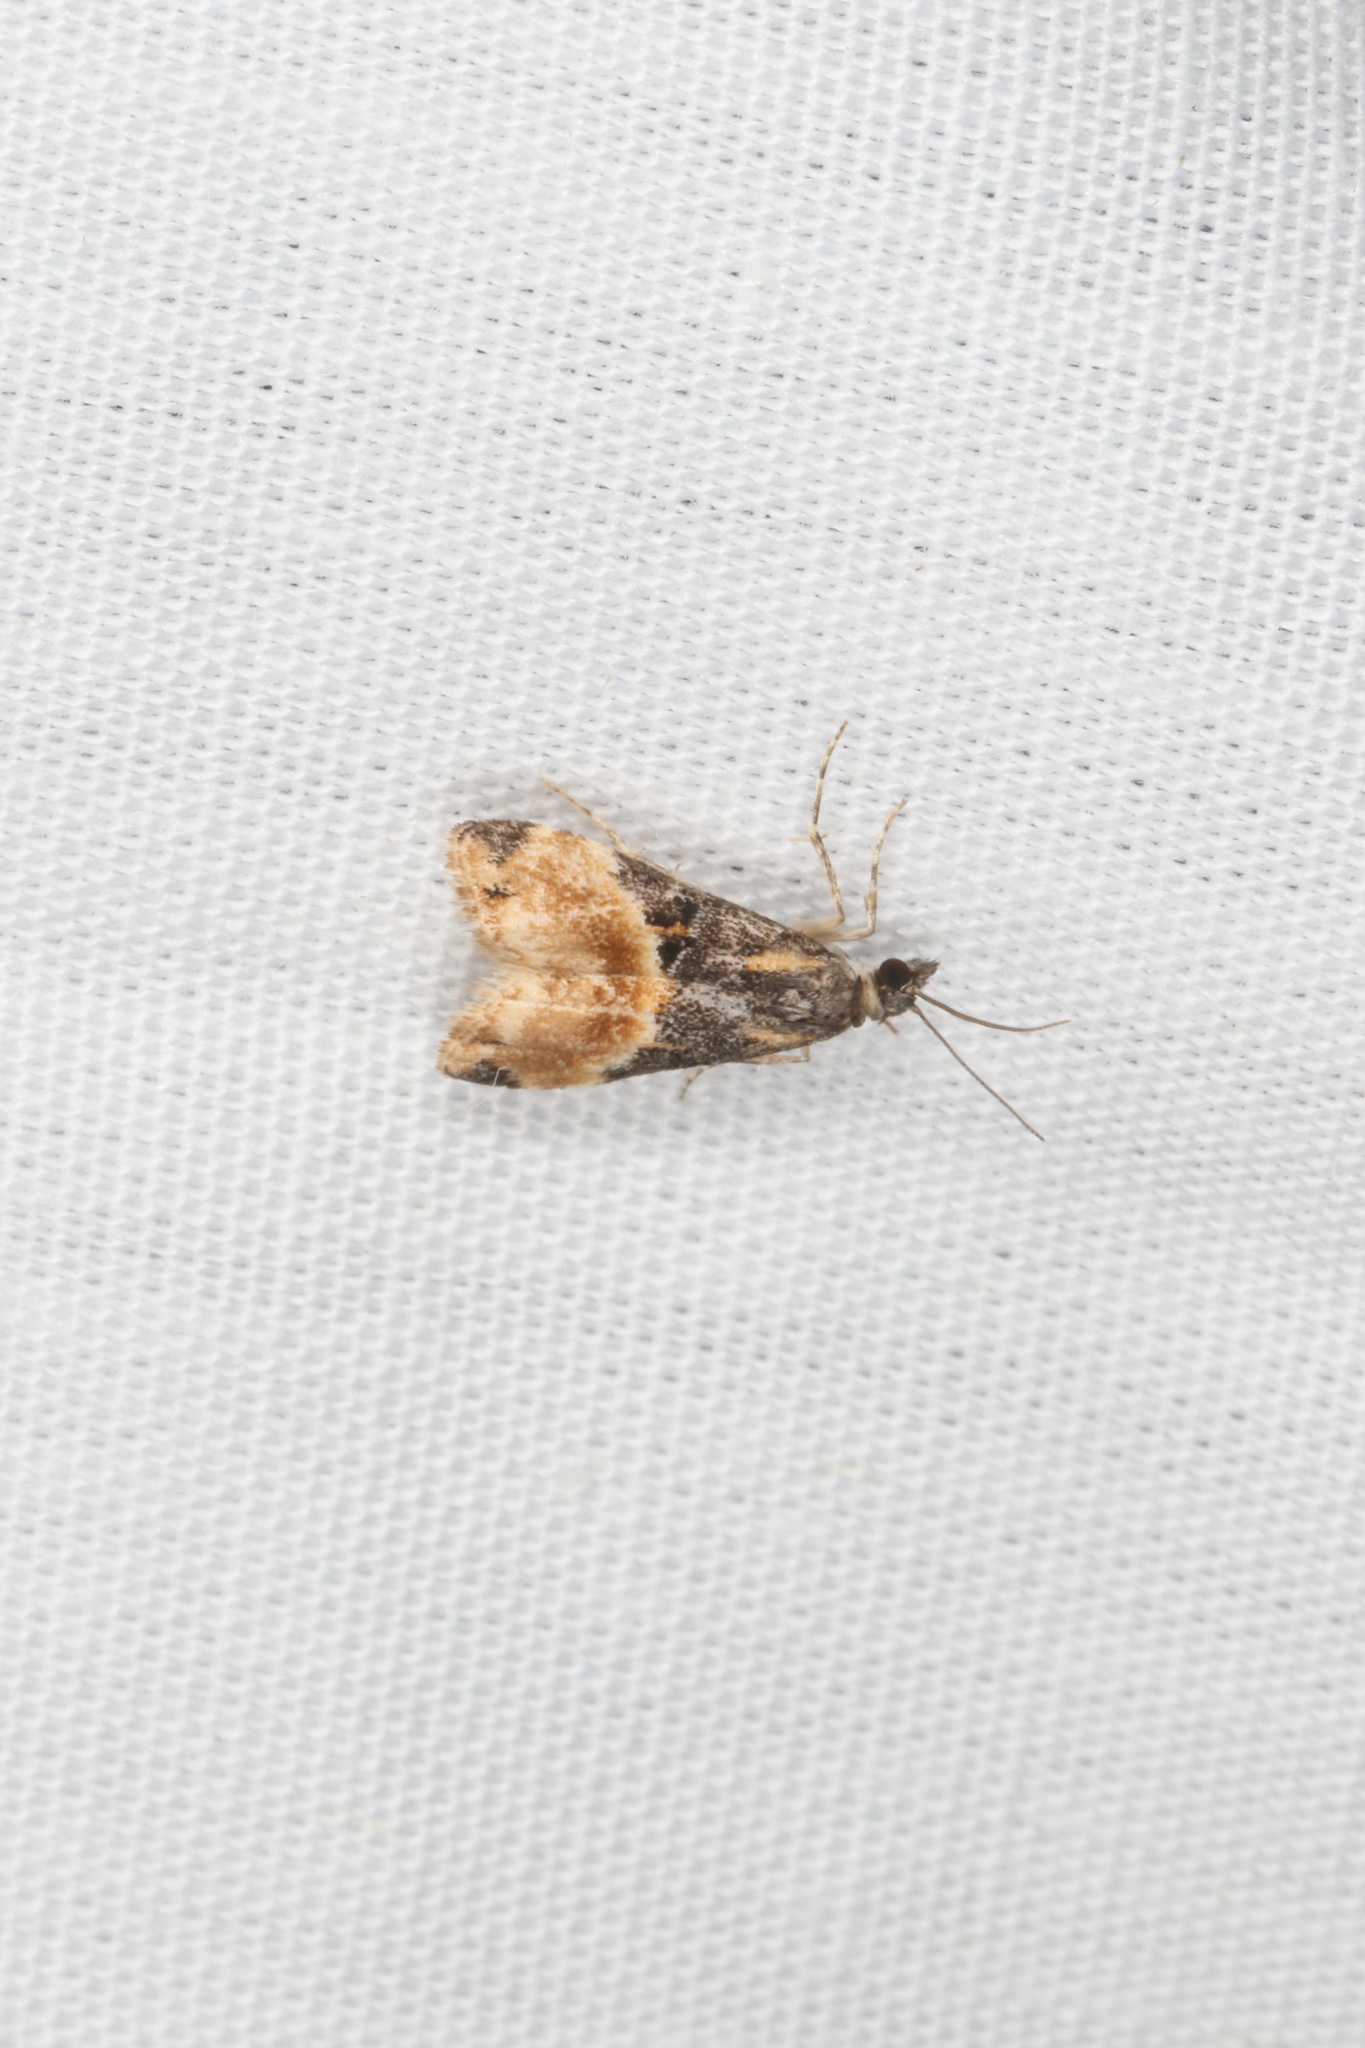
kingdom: Animalia
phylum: Arthropoda
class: Insecta
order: Lepidoptera
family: Crambidae
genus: Eudonia
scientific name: Eudonia chlamydota
